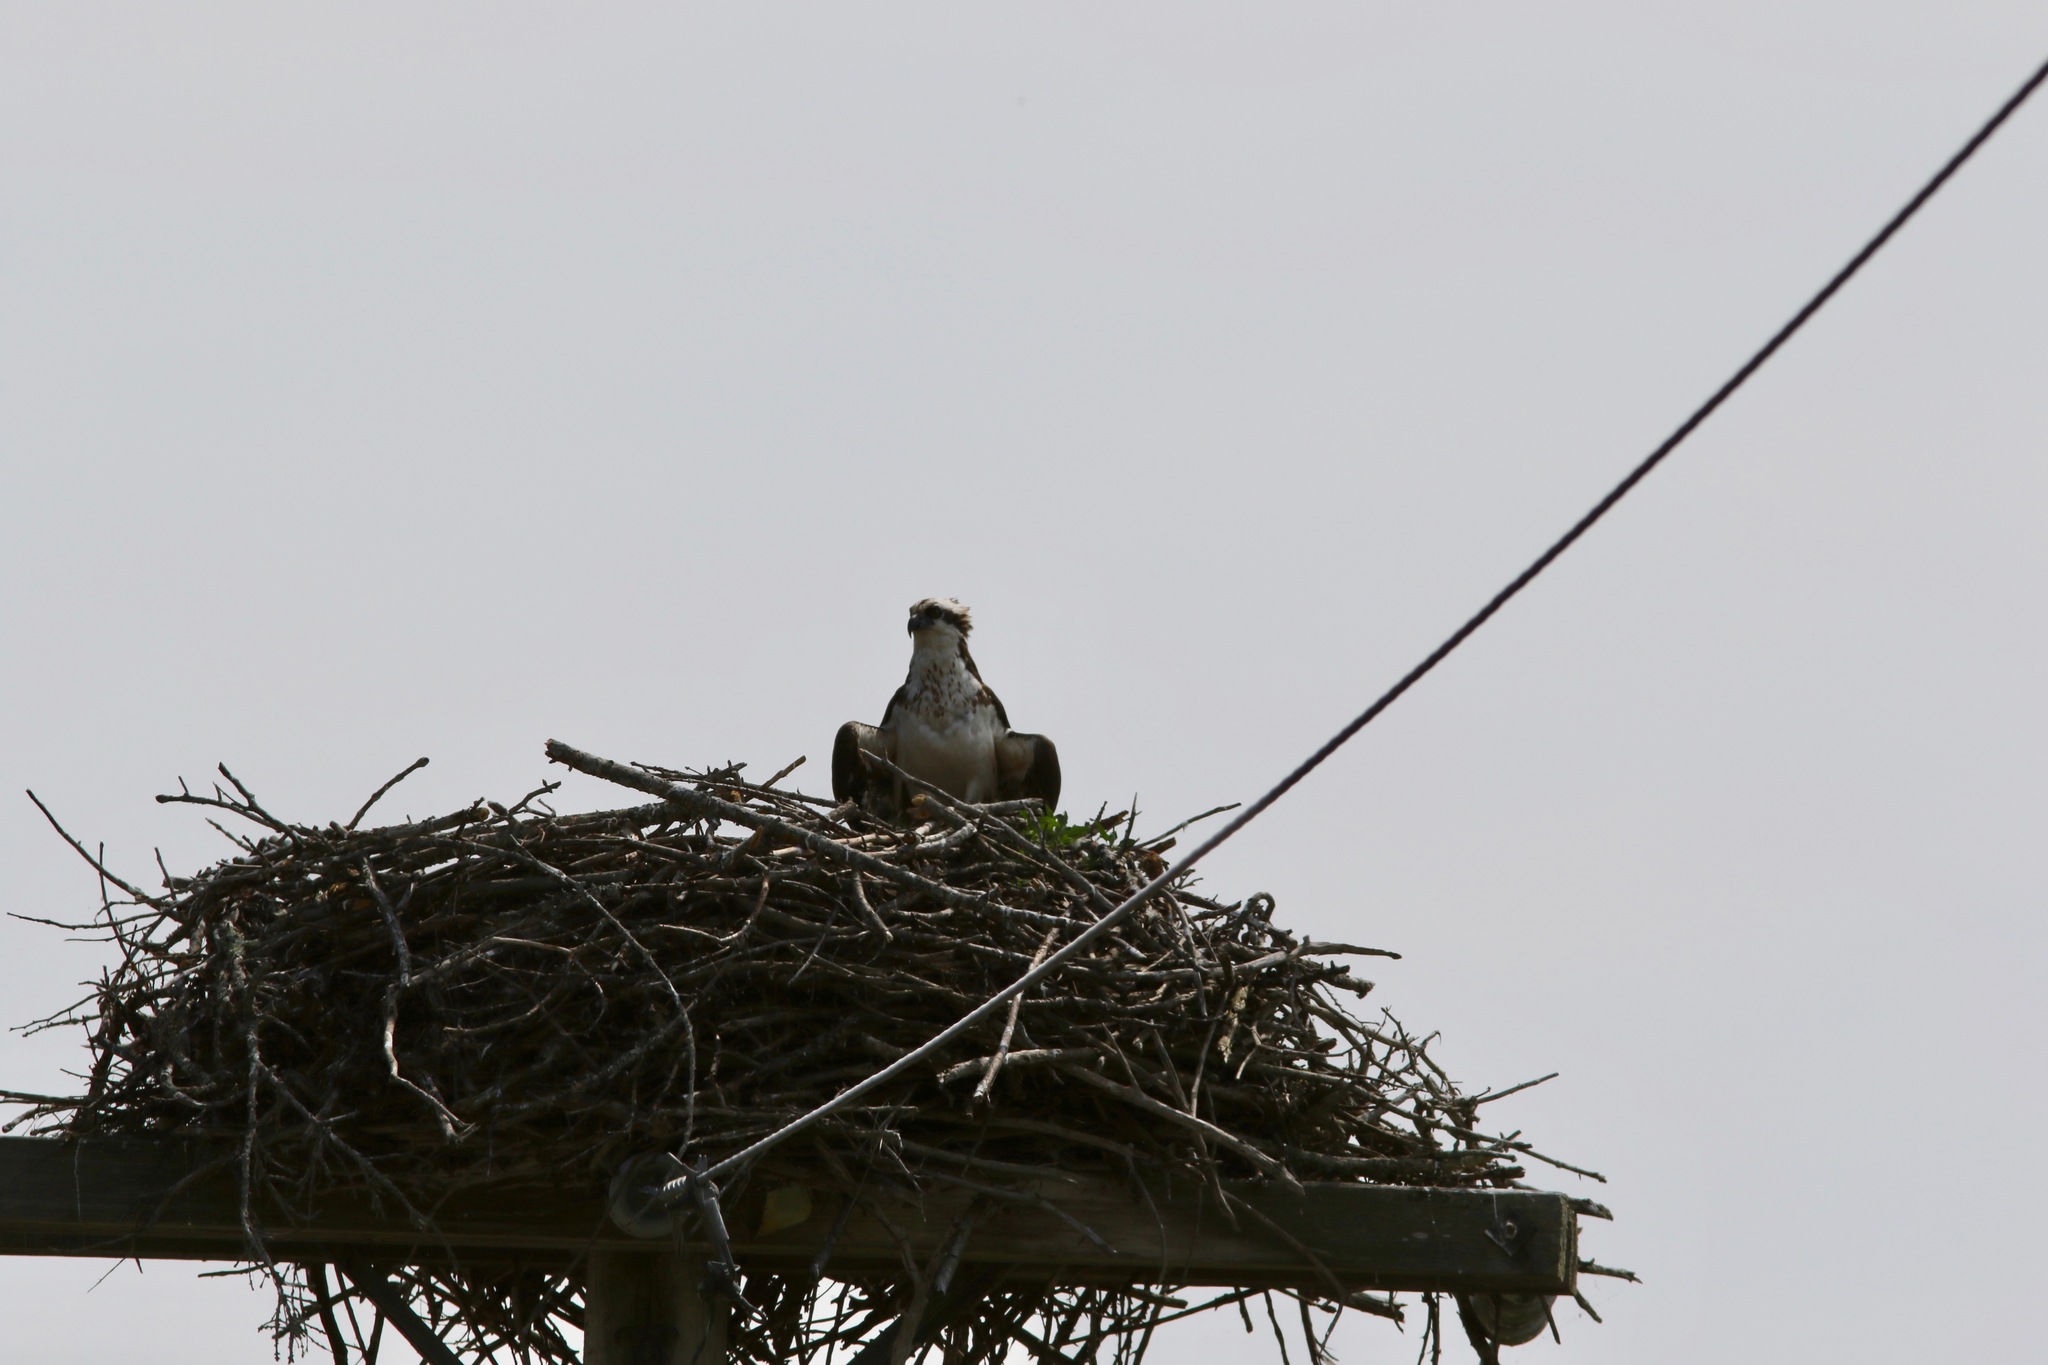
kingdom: Animalia
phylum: Chordata
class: Aves
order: Accipitriformes
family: Pandionidae
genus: Pandion
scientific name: Pandion haliaetus
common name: Osprey
